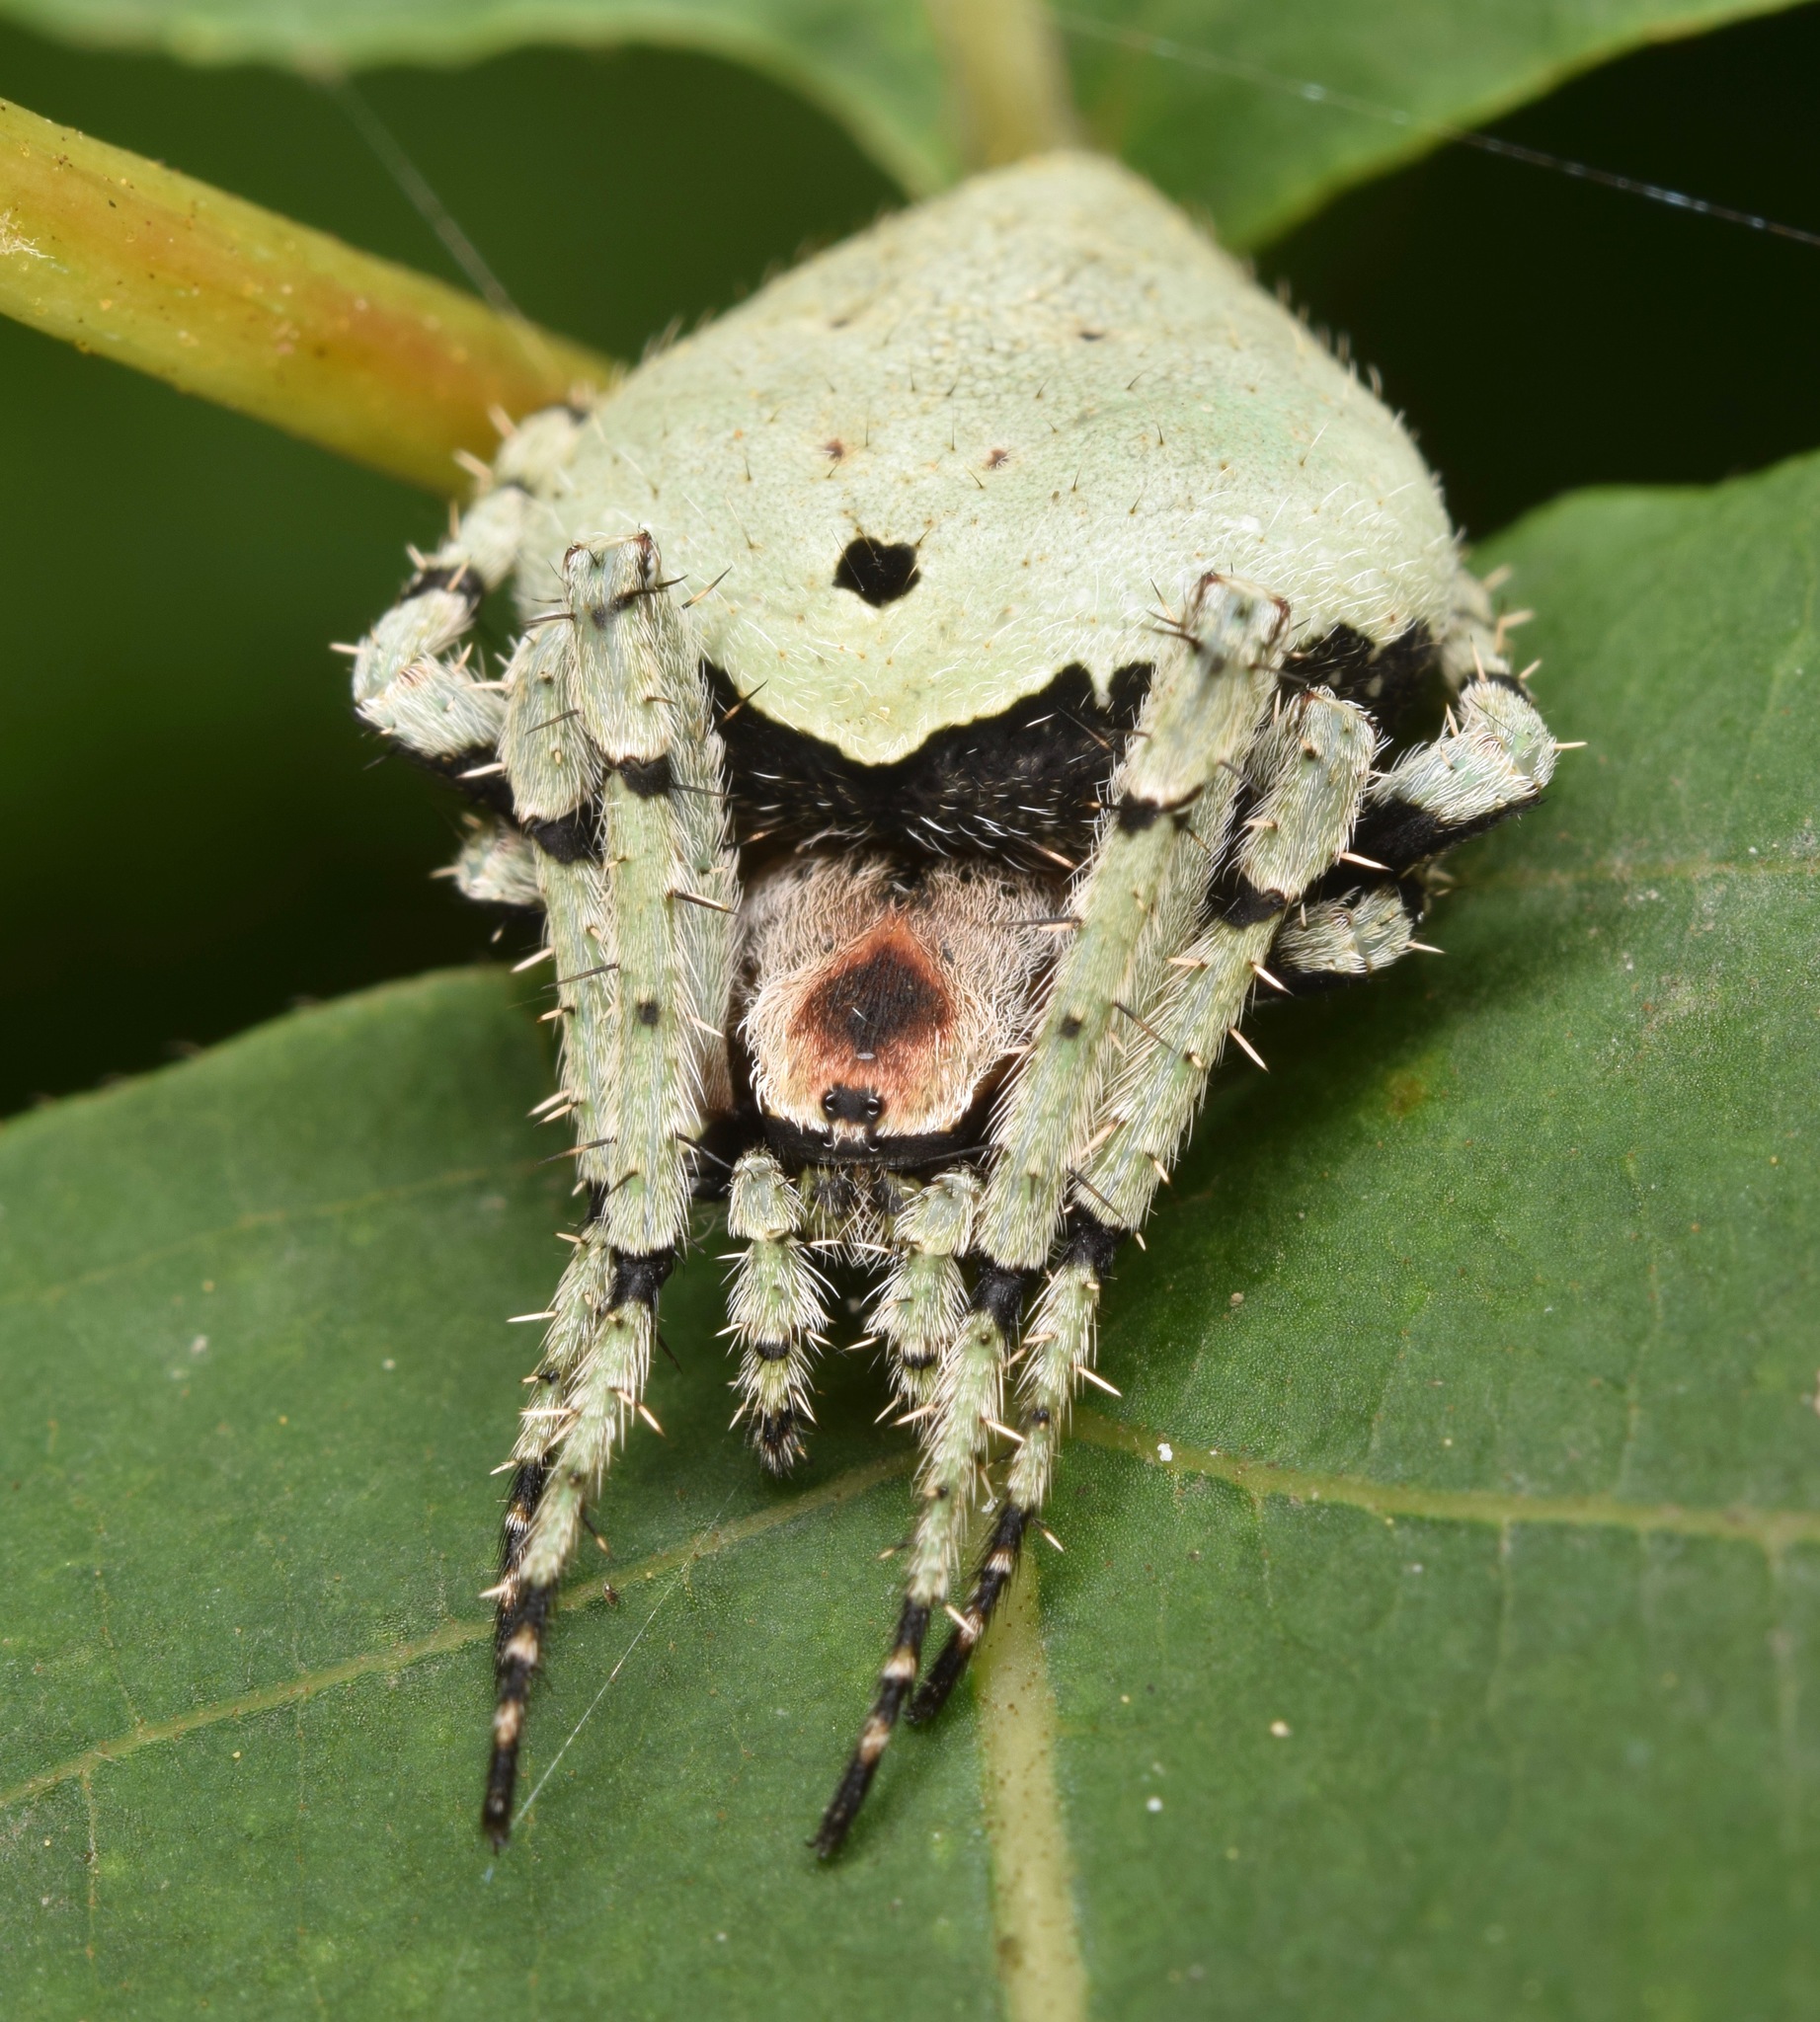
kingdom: Animalia
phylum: Arthropoda
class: Arachnida
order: Araneae
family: Araneidae
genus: Eustala
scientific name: Eustala anastera
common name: Orb weavers
